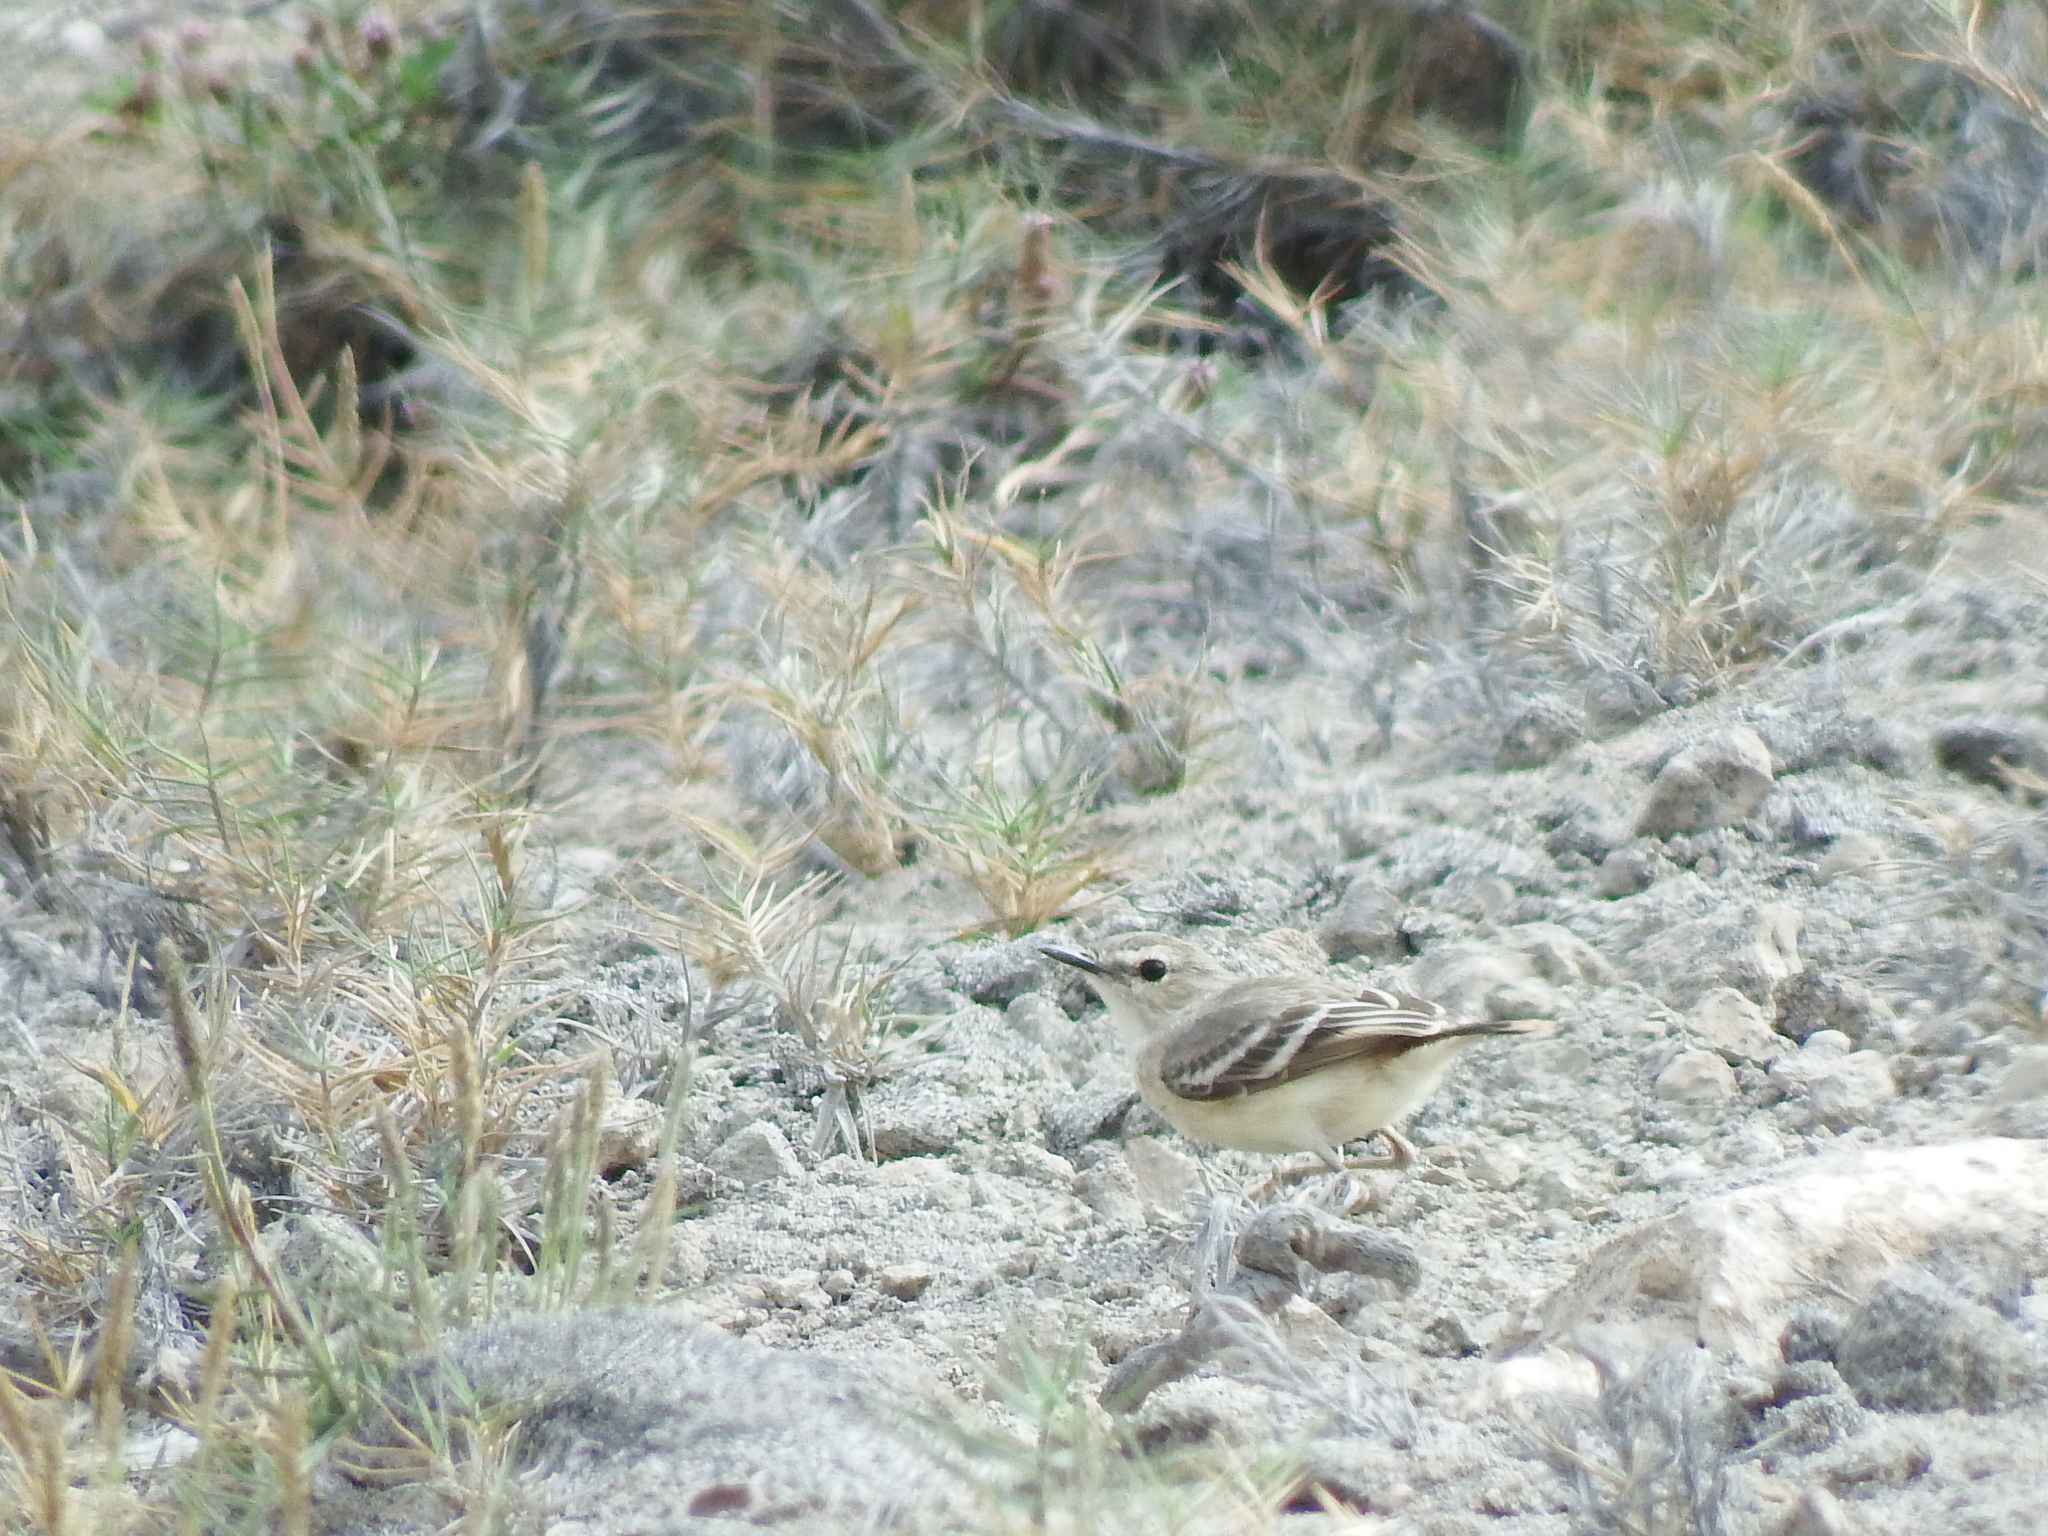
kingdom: Animalia
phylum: Chordata
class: Aves
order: Passeriformes
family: Tyrannidae
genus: Muscigralla
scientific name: Muscigralla brevicauda
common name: Short-tailed field tyrant
